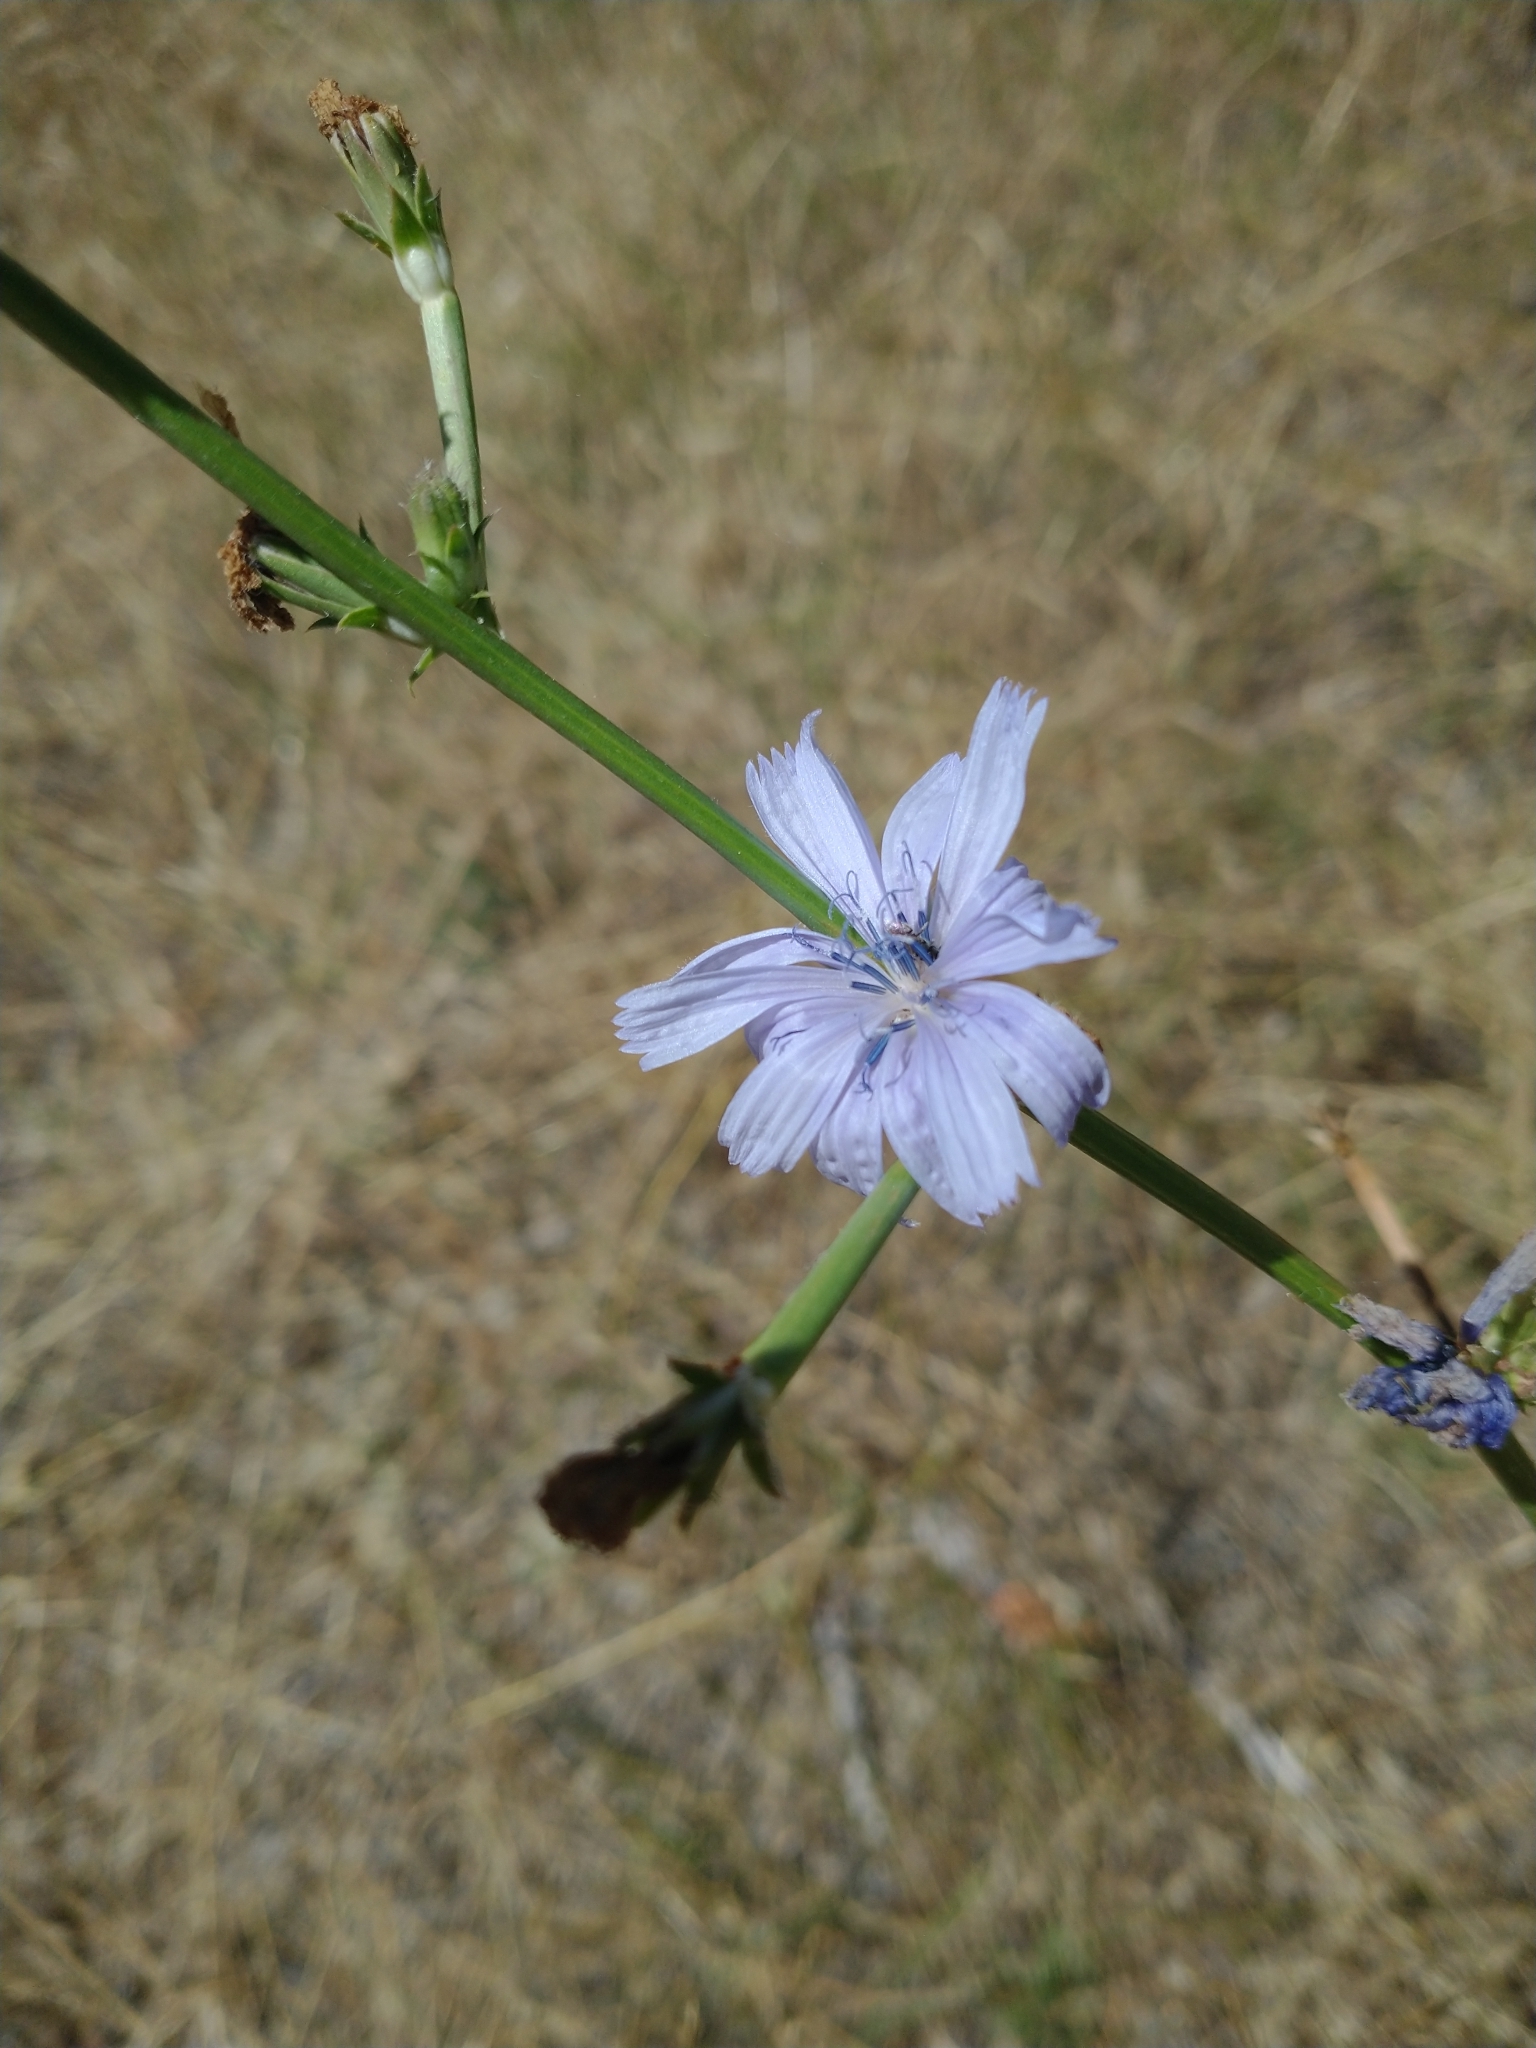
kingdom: Plantae
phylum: Tracheophyta
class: Magnoliopsida
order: Asterales
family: Asteraceae
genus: Cichorium
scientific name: Cichorium intybus
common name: Chicory
